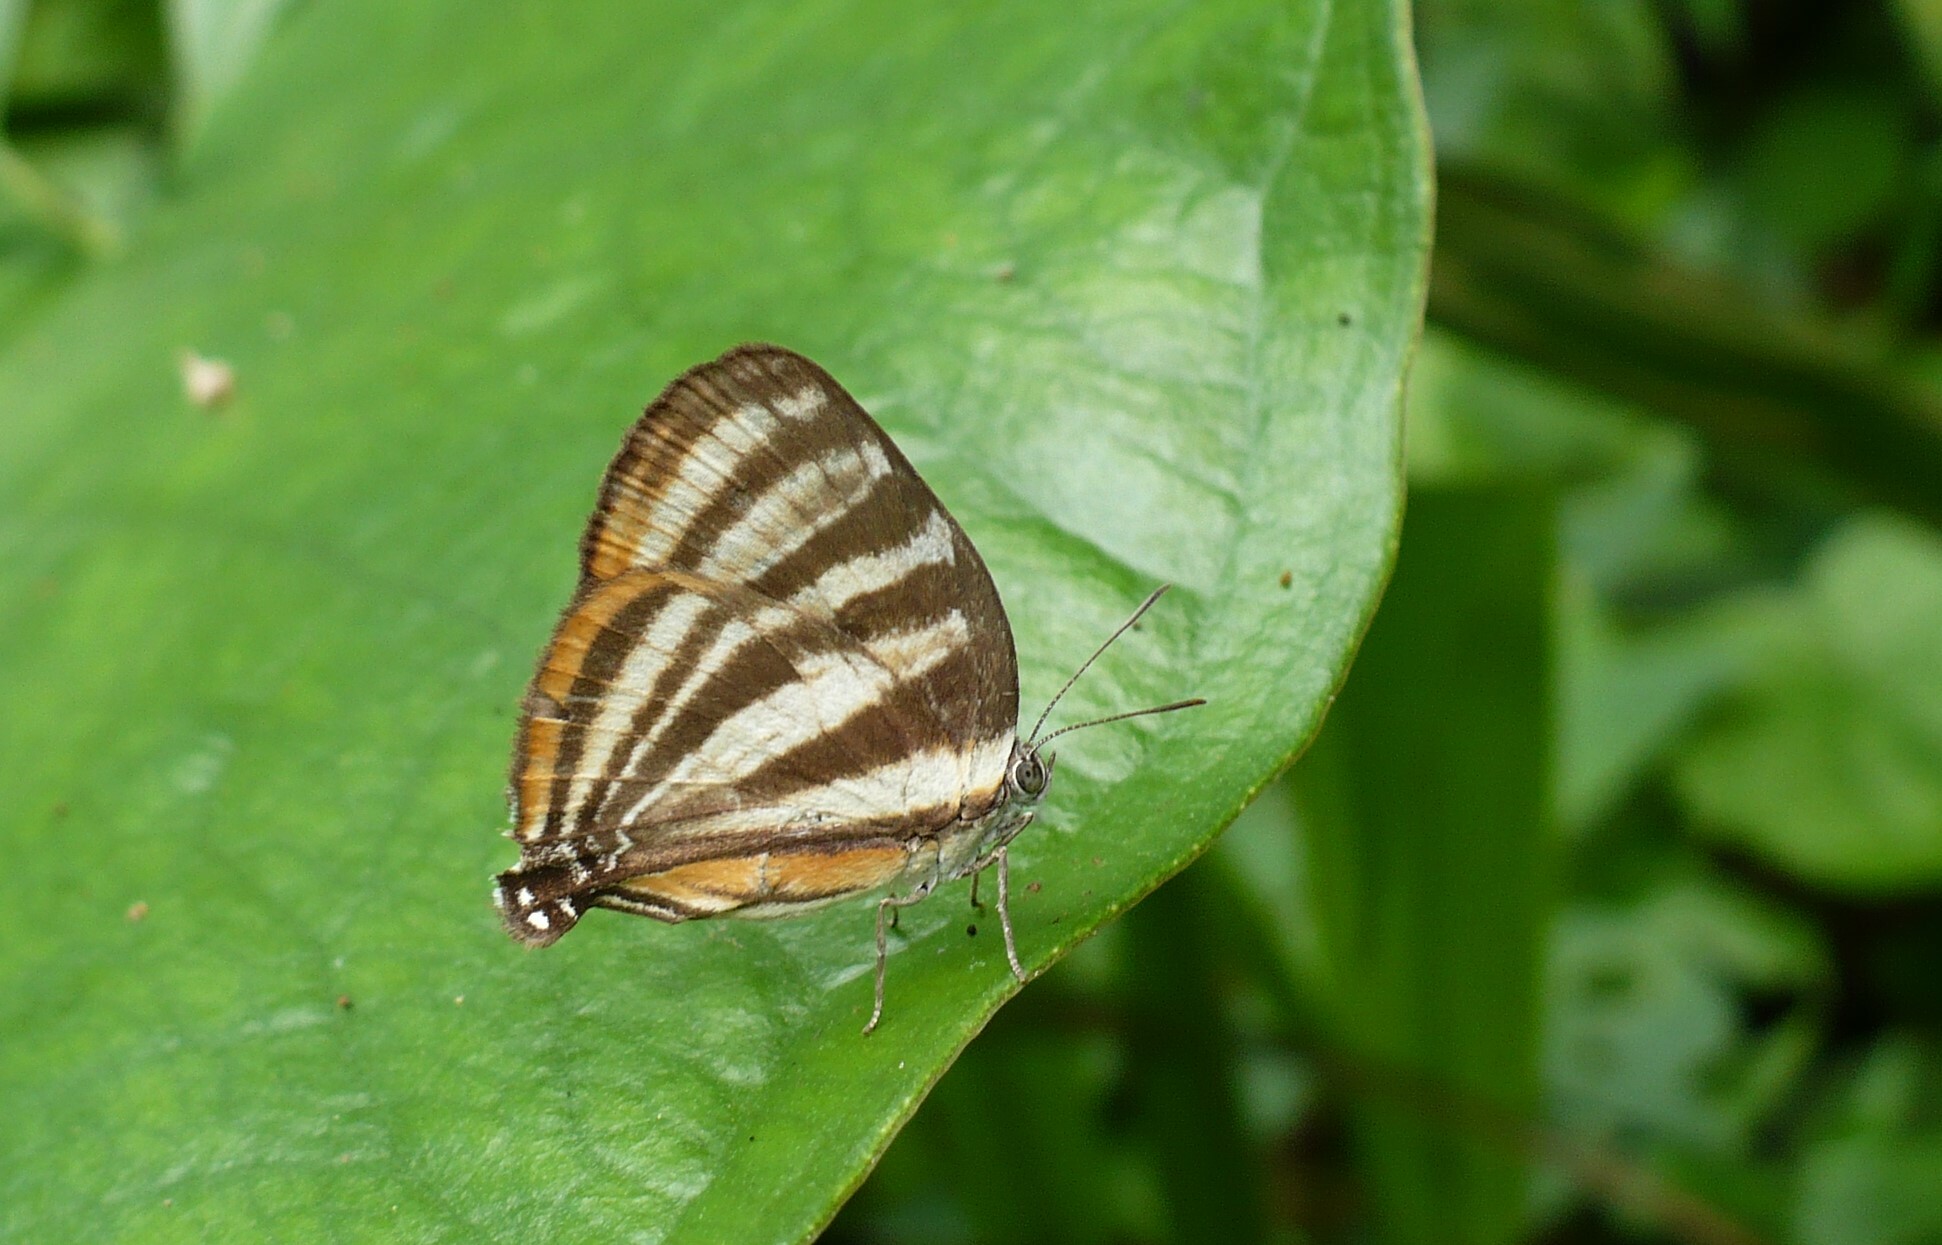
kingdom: Animalia
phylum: Arthropoda
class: Insecta
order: Lepidoptera
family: Lycaenidae
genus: Thecla
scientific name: Thecla aetolus
